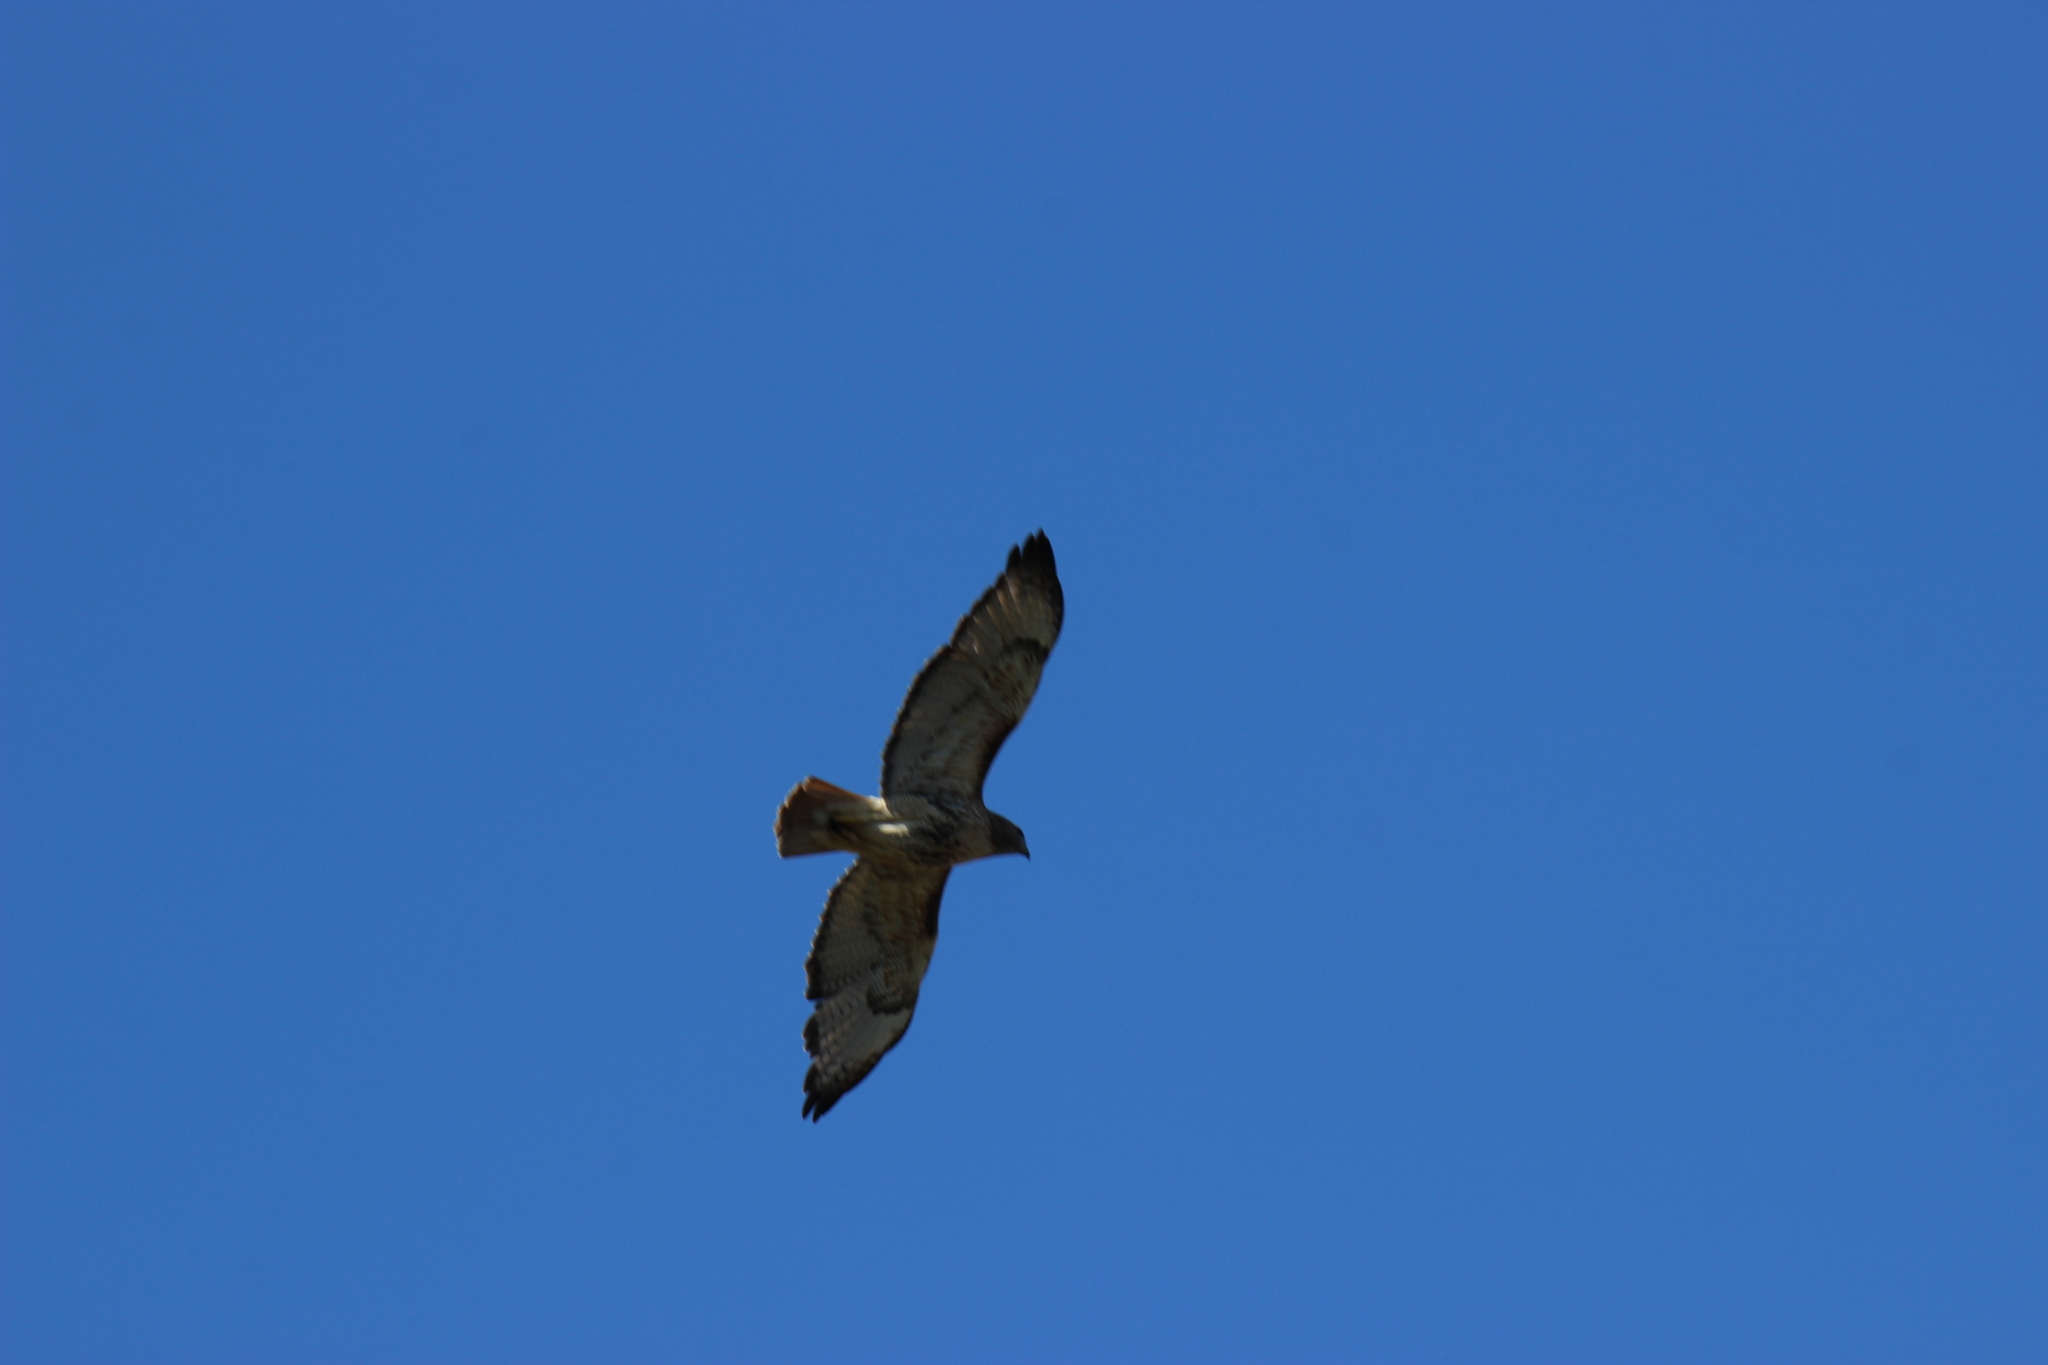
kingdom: Animalia
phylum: Chordata
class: Aves
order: Accipitriformes
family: Accipitridae
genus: Buteo
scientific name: Buteo jamaicensis
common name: Red-tailed hawk
